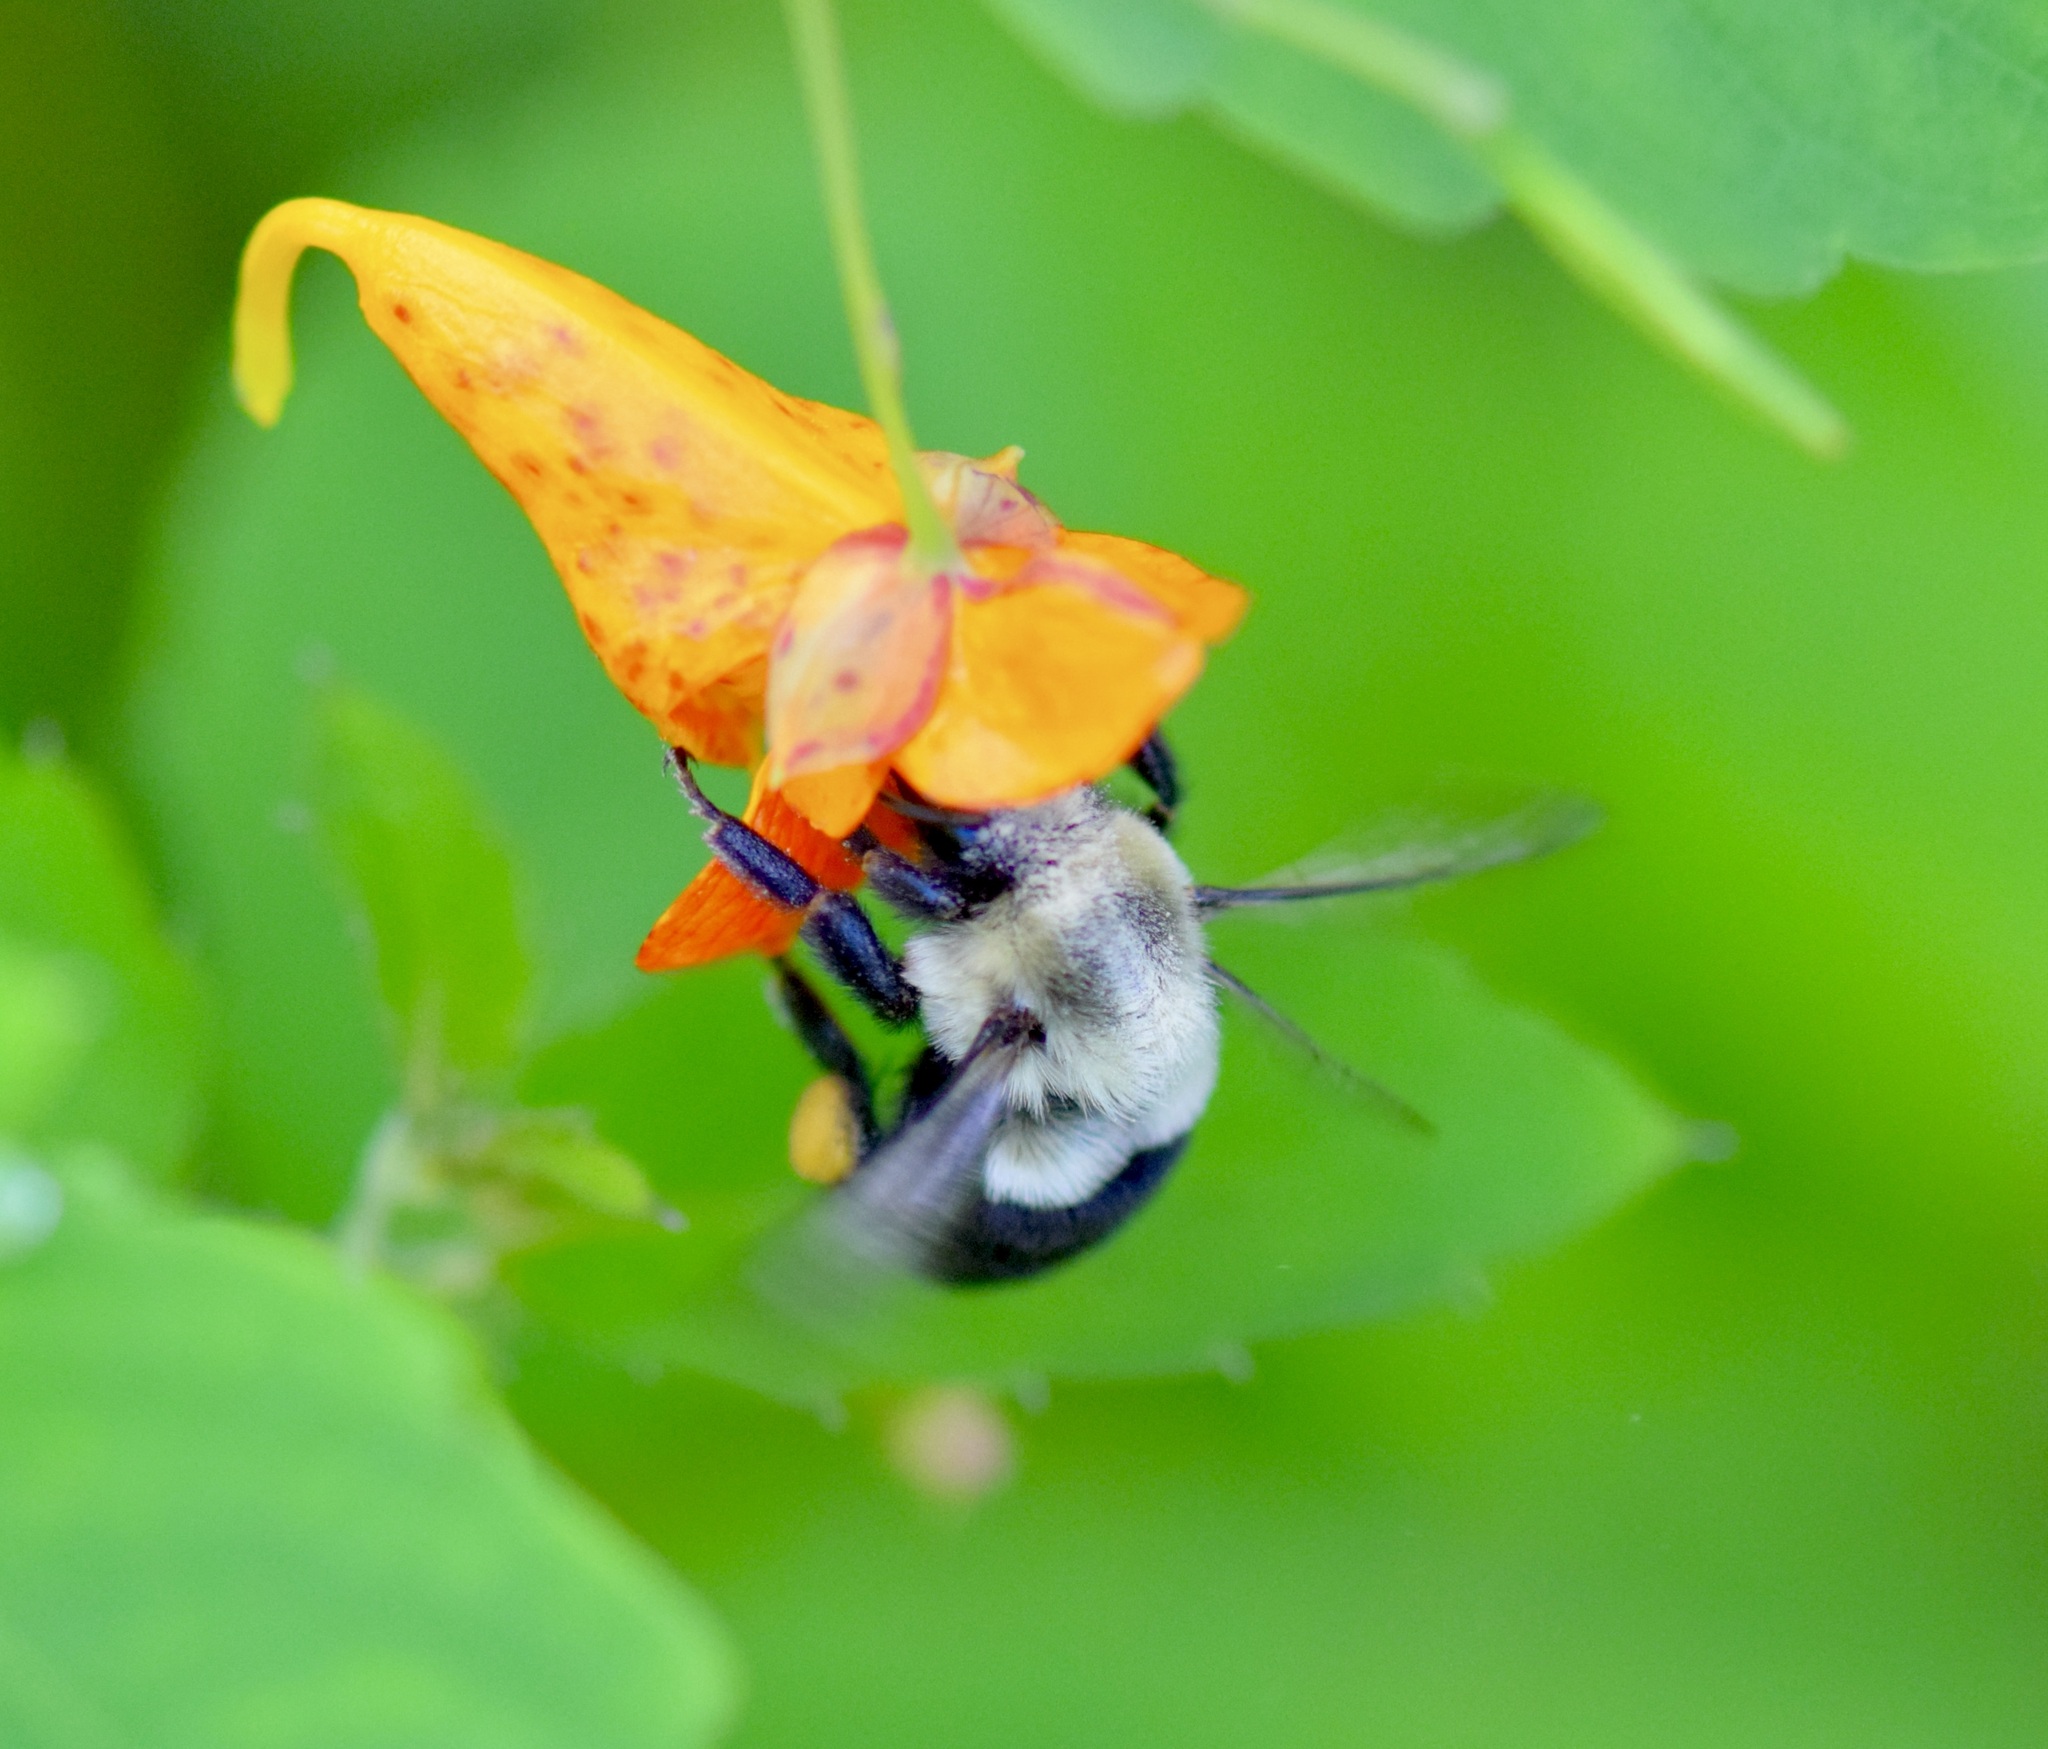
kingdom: Animalia
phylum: Arthropoda
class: Insecta
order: Hymenoptera
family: Apidae
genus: Bombus
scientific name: Bombus impatiens
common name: Common eastern bumble bee
